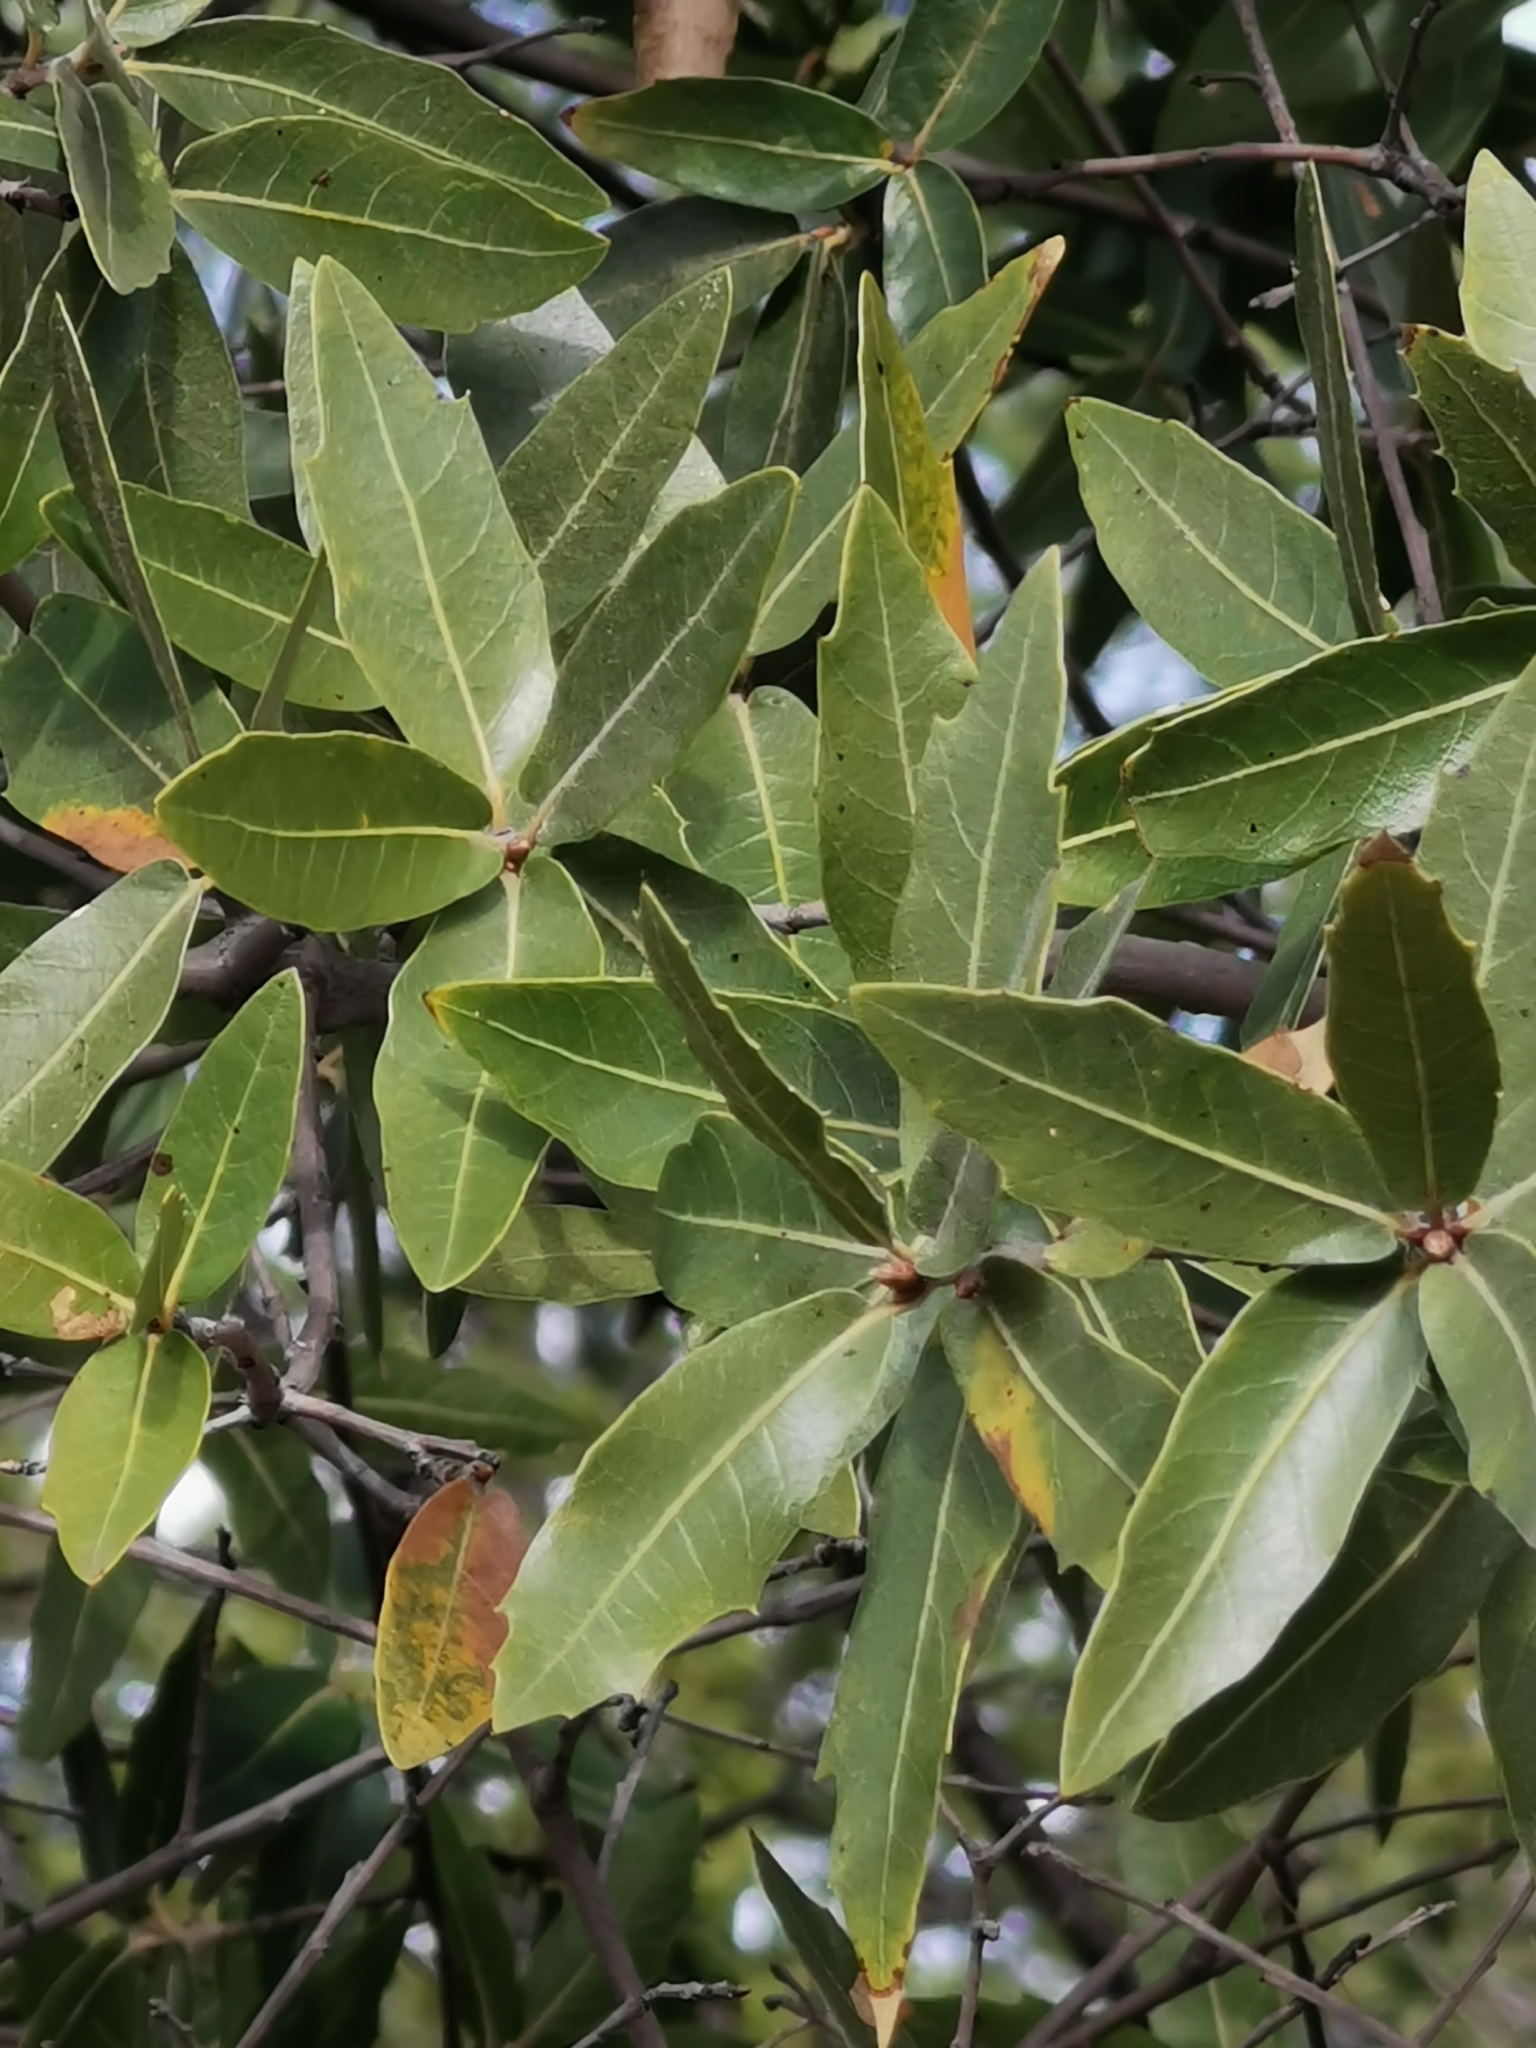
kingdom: Plantae
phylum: Tracheophyta
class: Magnoliopsida
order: Fagales
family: Fagaceae
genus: Quercus
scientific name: Quercus emoryi
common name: Emory oak
